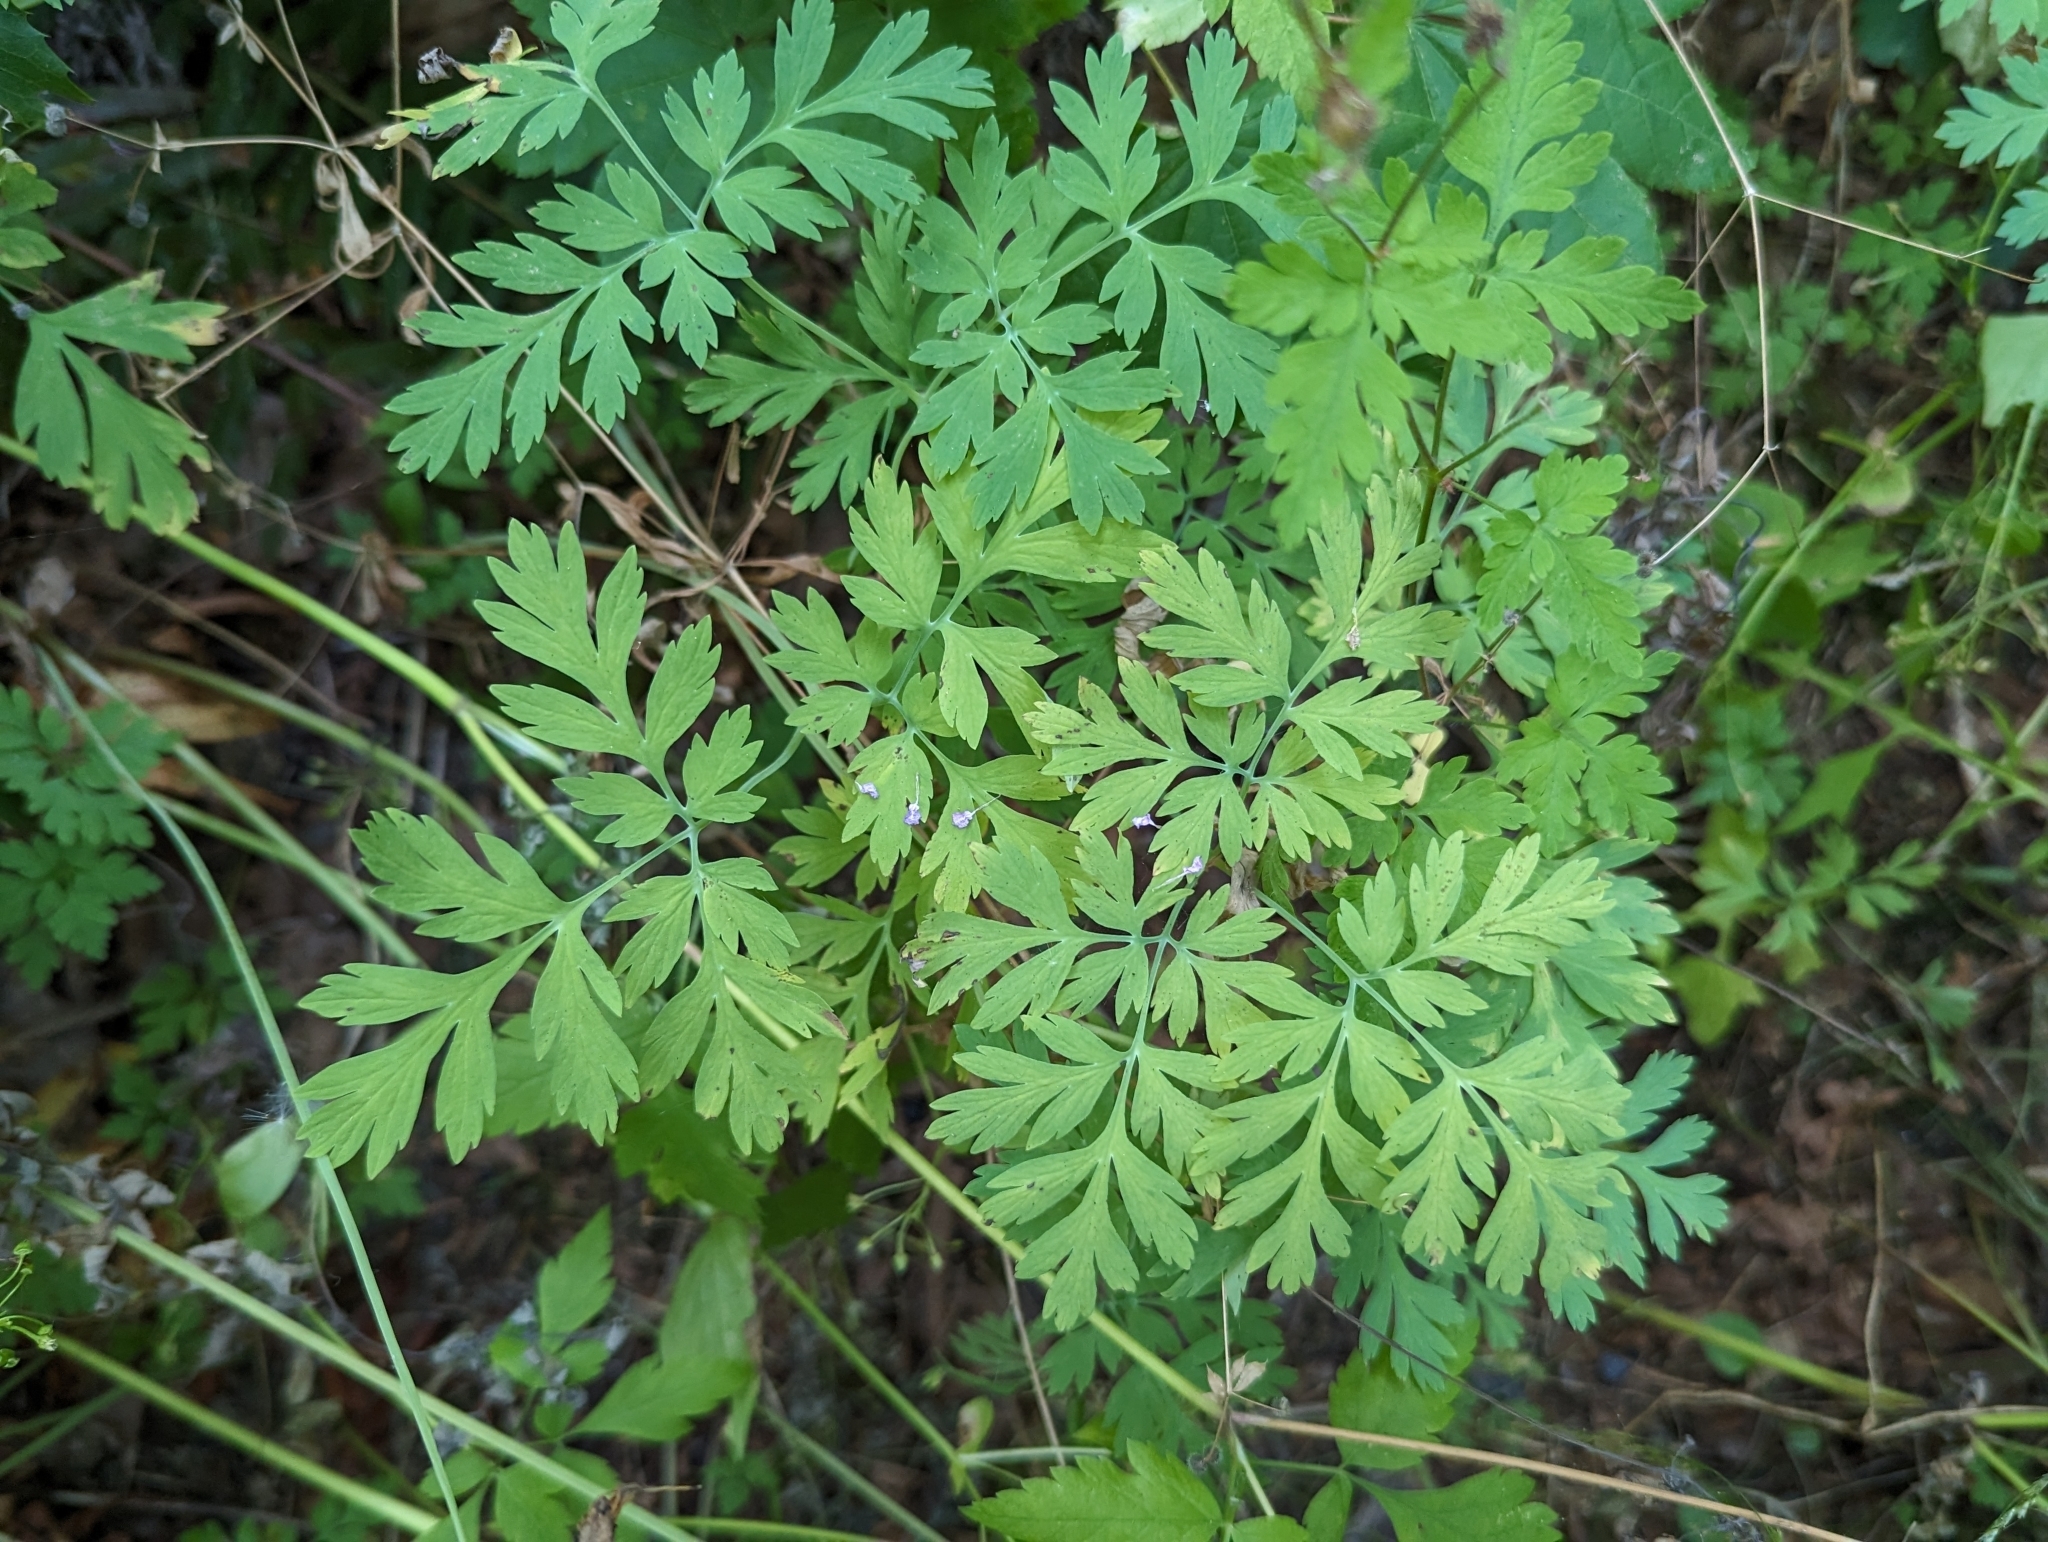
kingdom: Plantae
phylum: Tracheophyta
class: Magnoliopsida
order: Ranunculales
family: Papaveraceae
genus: Dicentra
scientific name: Dicentra formosa
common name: Bleeding-heart
